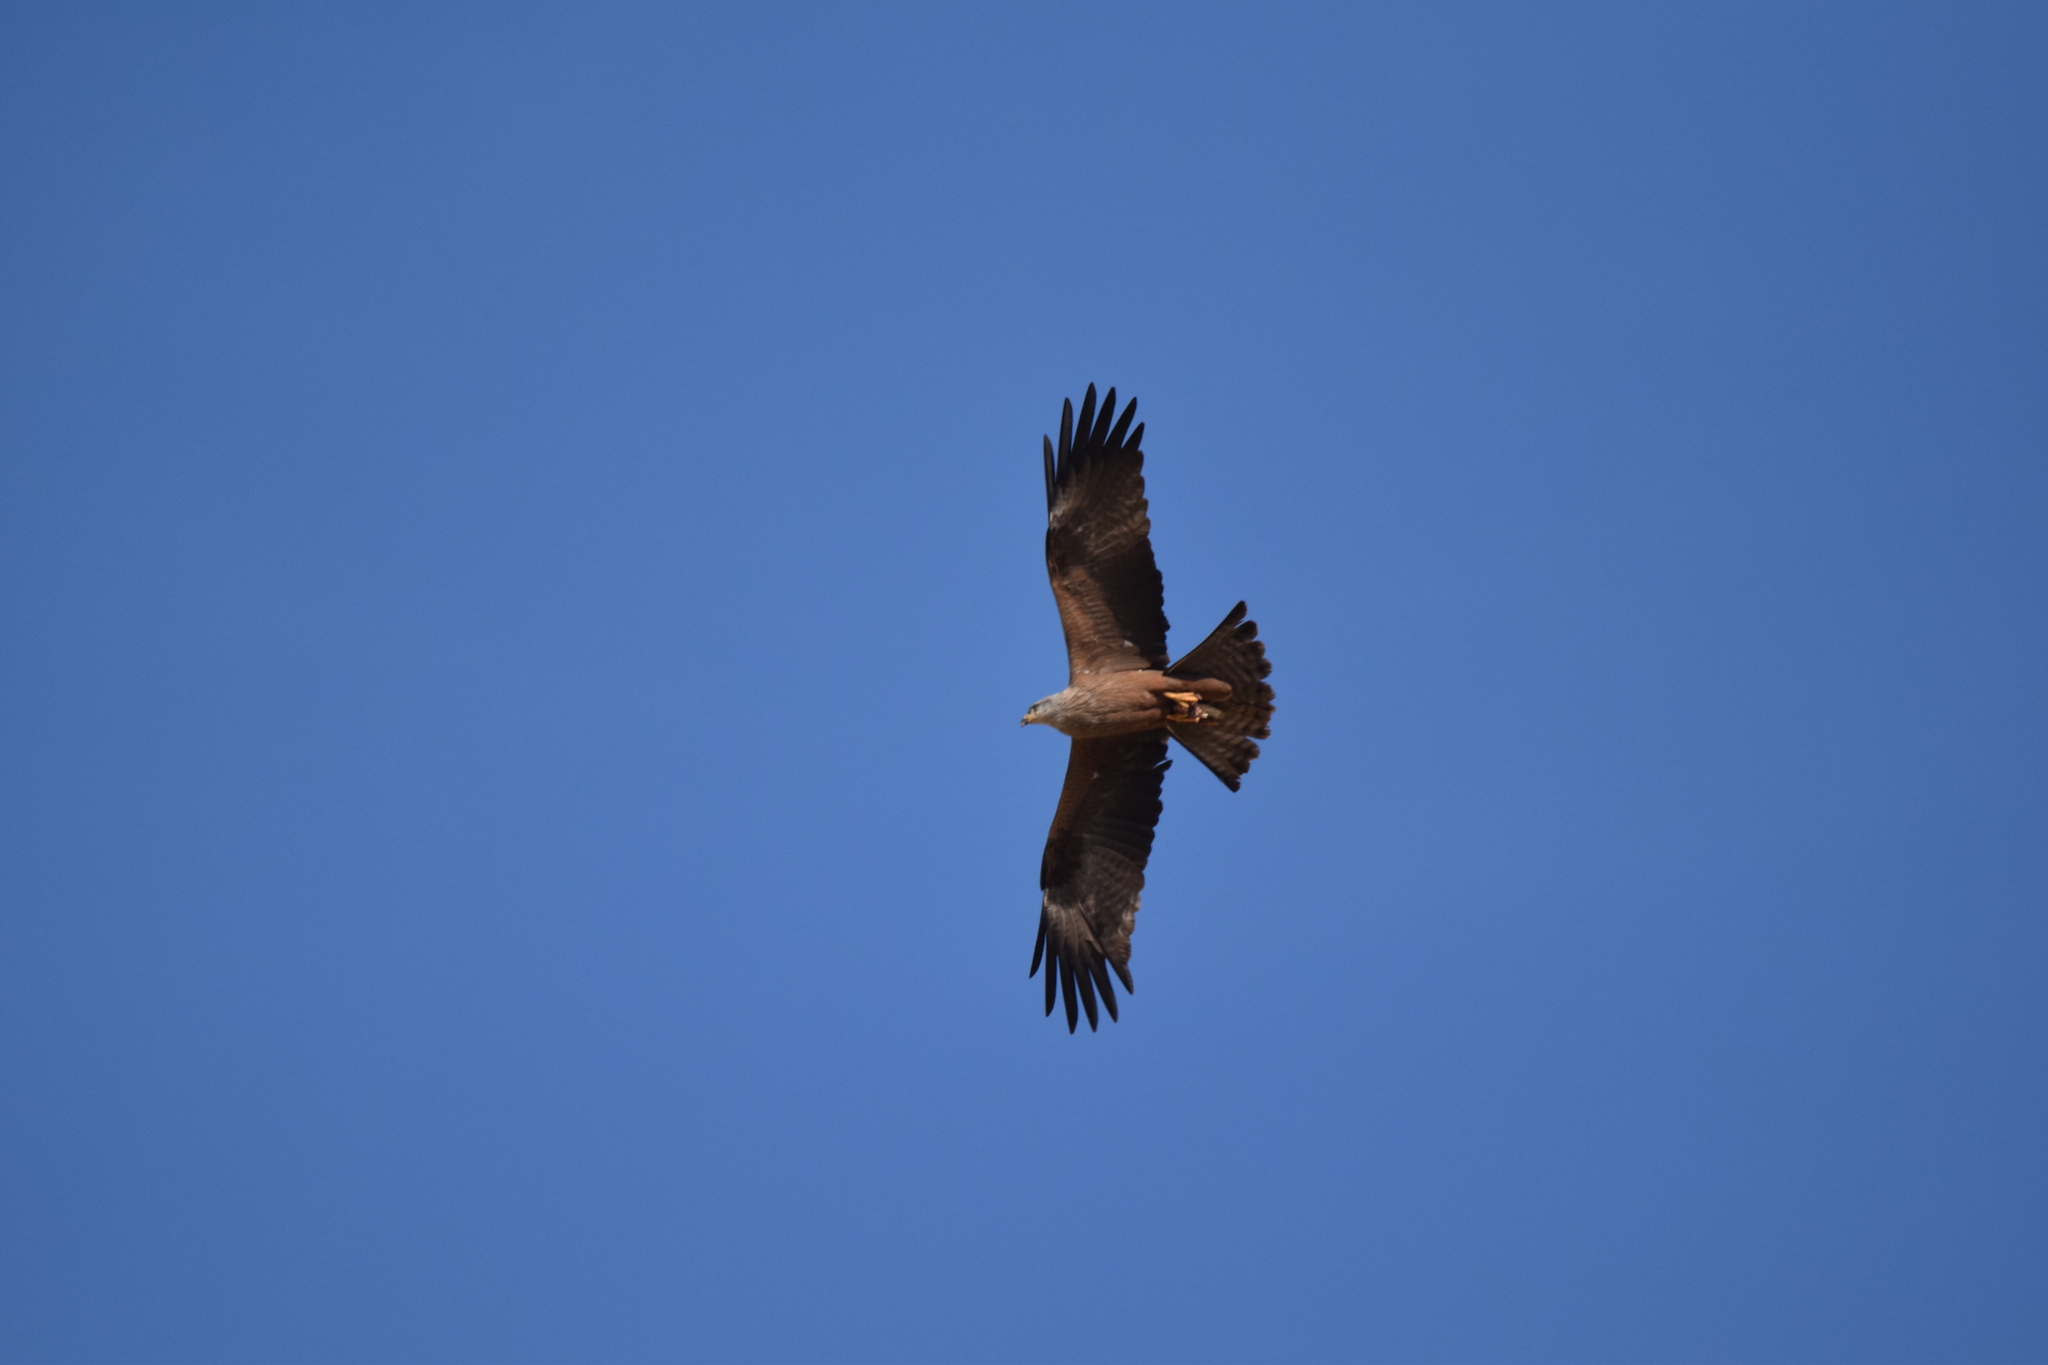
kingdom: Animalia
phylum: Chordata
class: Aves
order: Accipitriformes
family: Accipitridae
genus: Milvus
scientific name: Milvus migrans
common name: Black kite
